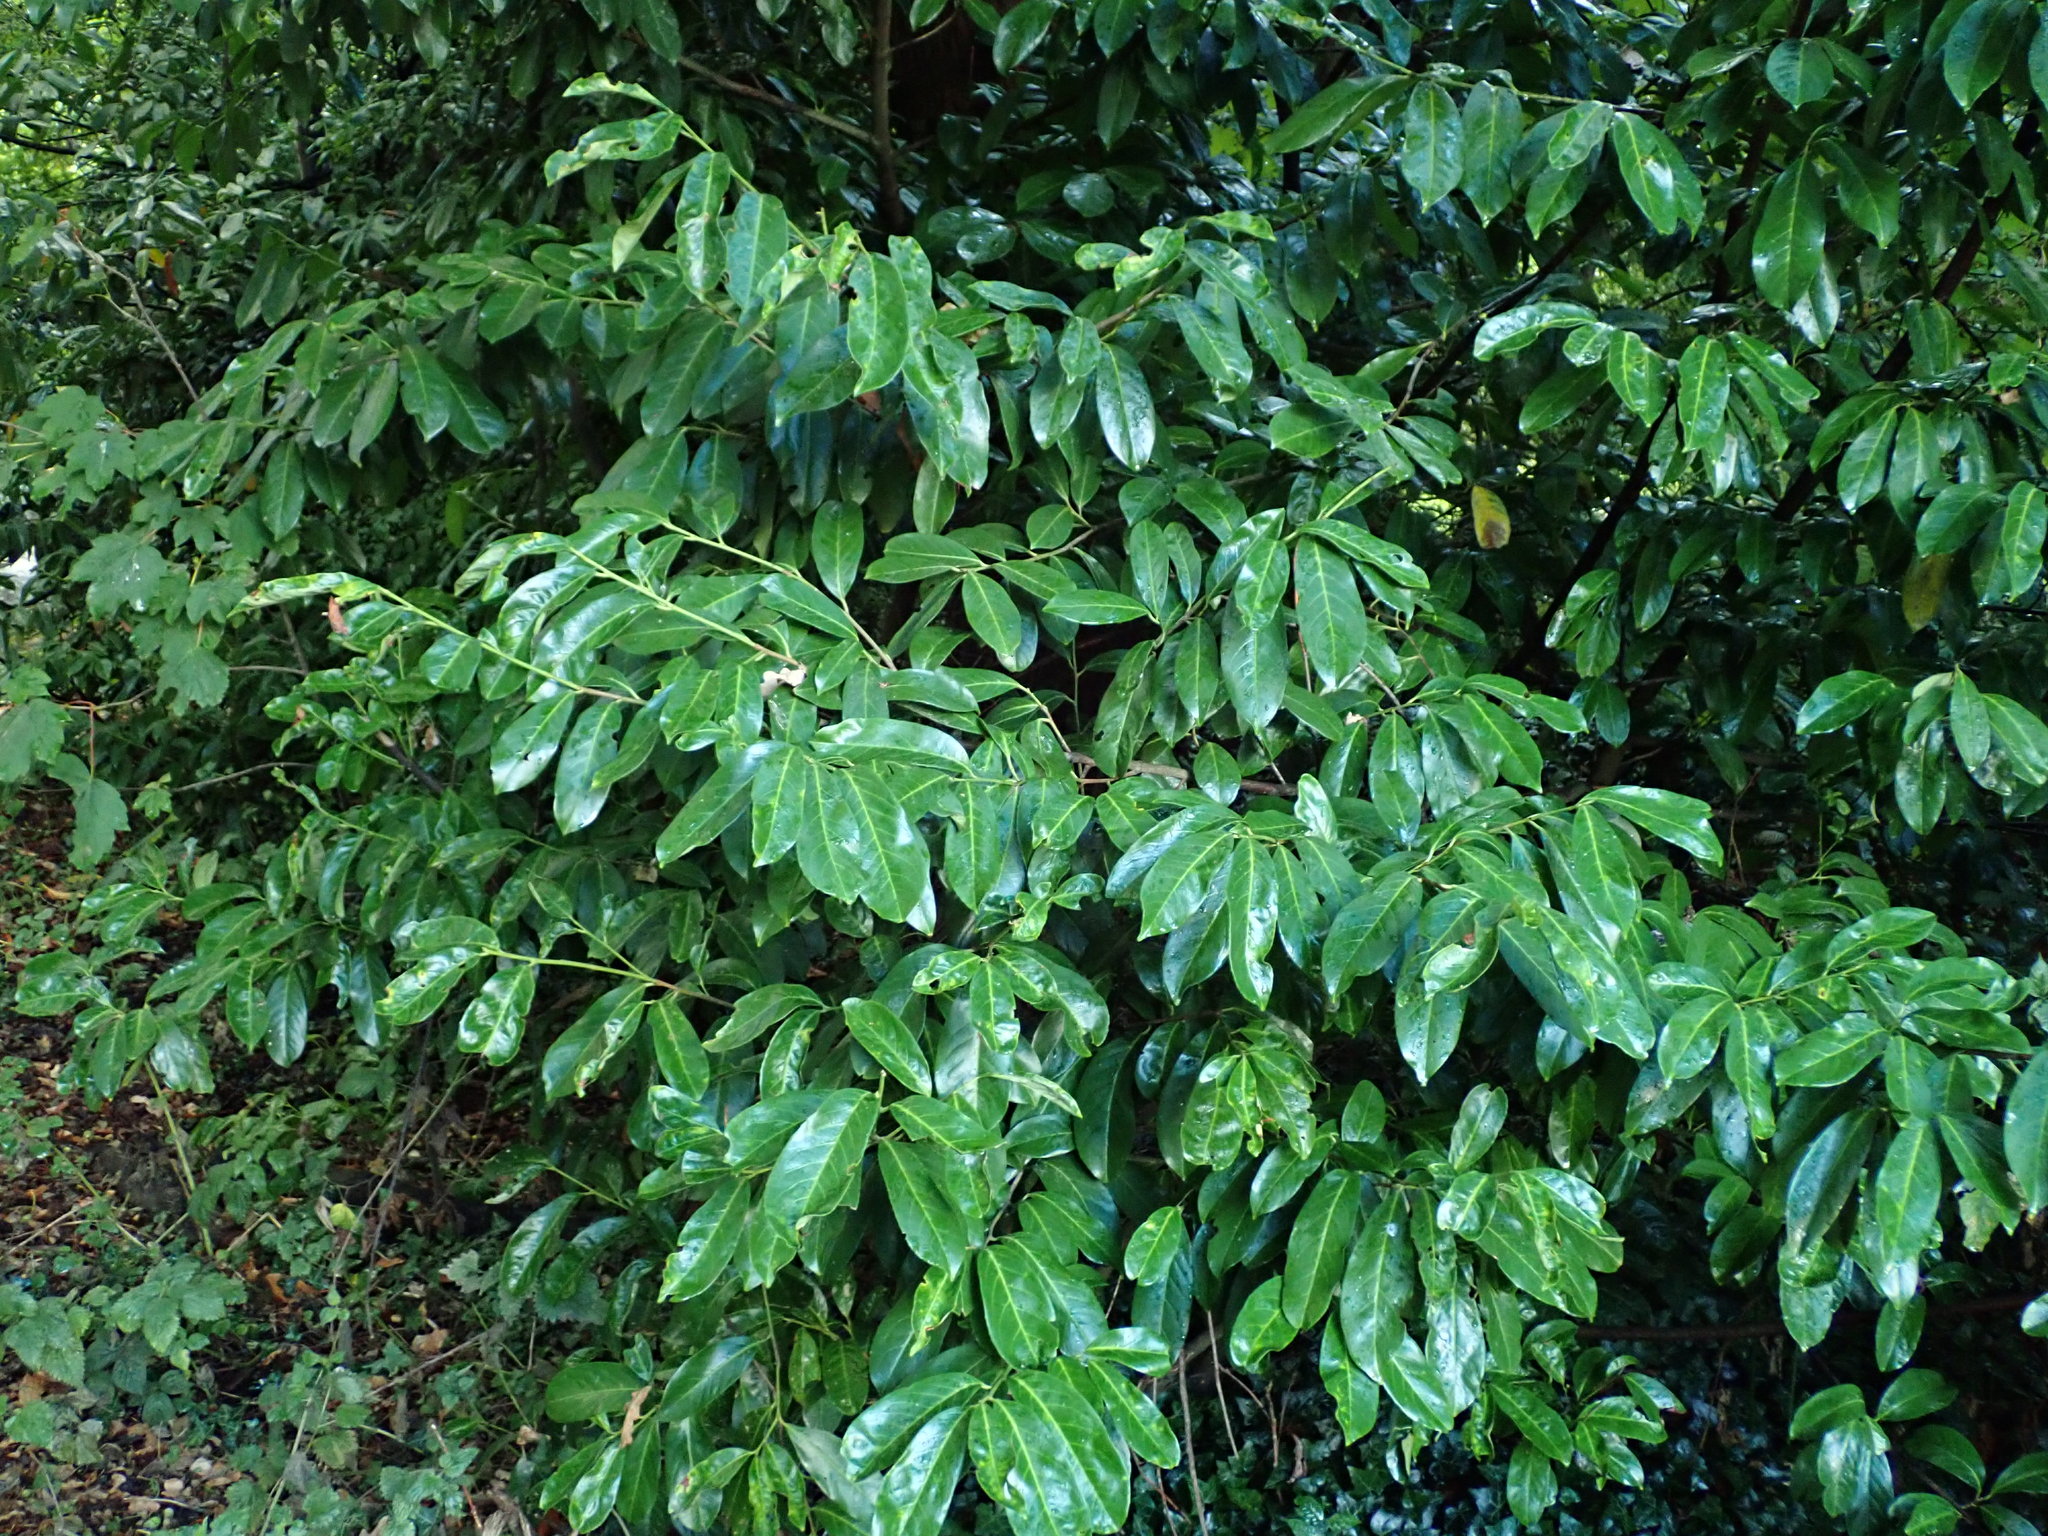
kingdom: Plantae
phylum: Tracheophyta
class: Magnoliopsida
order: Rosales
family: Rosaceae
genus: Prunus
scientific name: Prunus laurocerasus
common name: Cherry laurel
